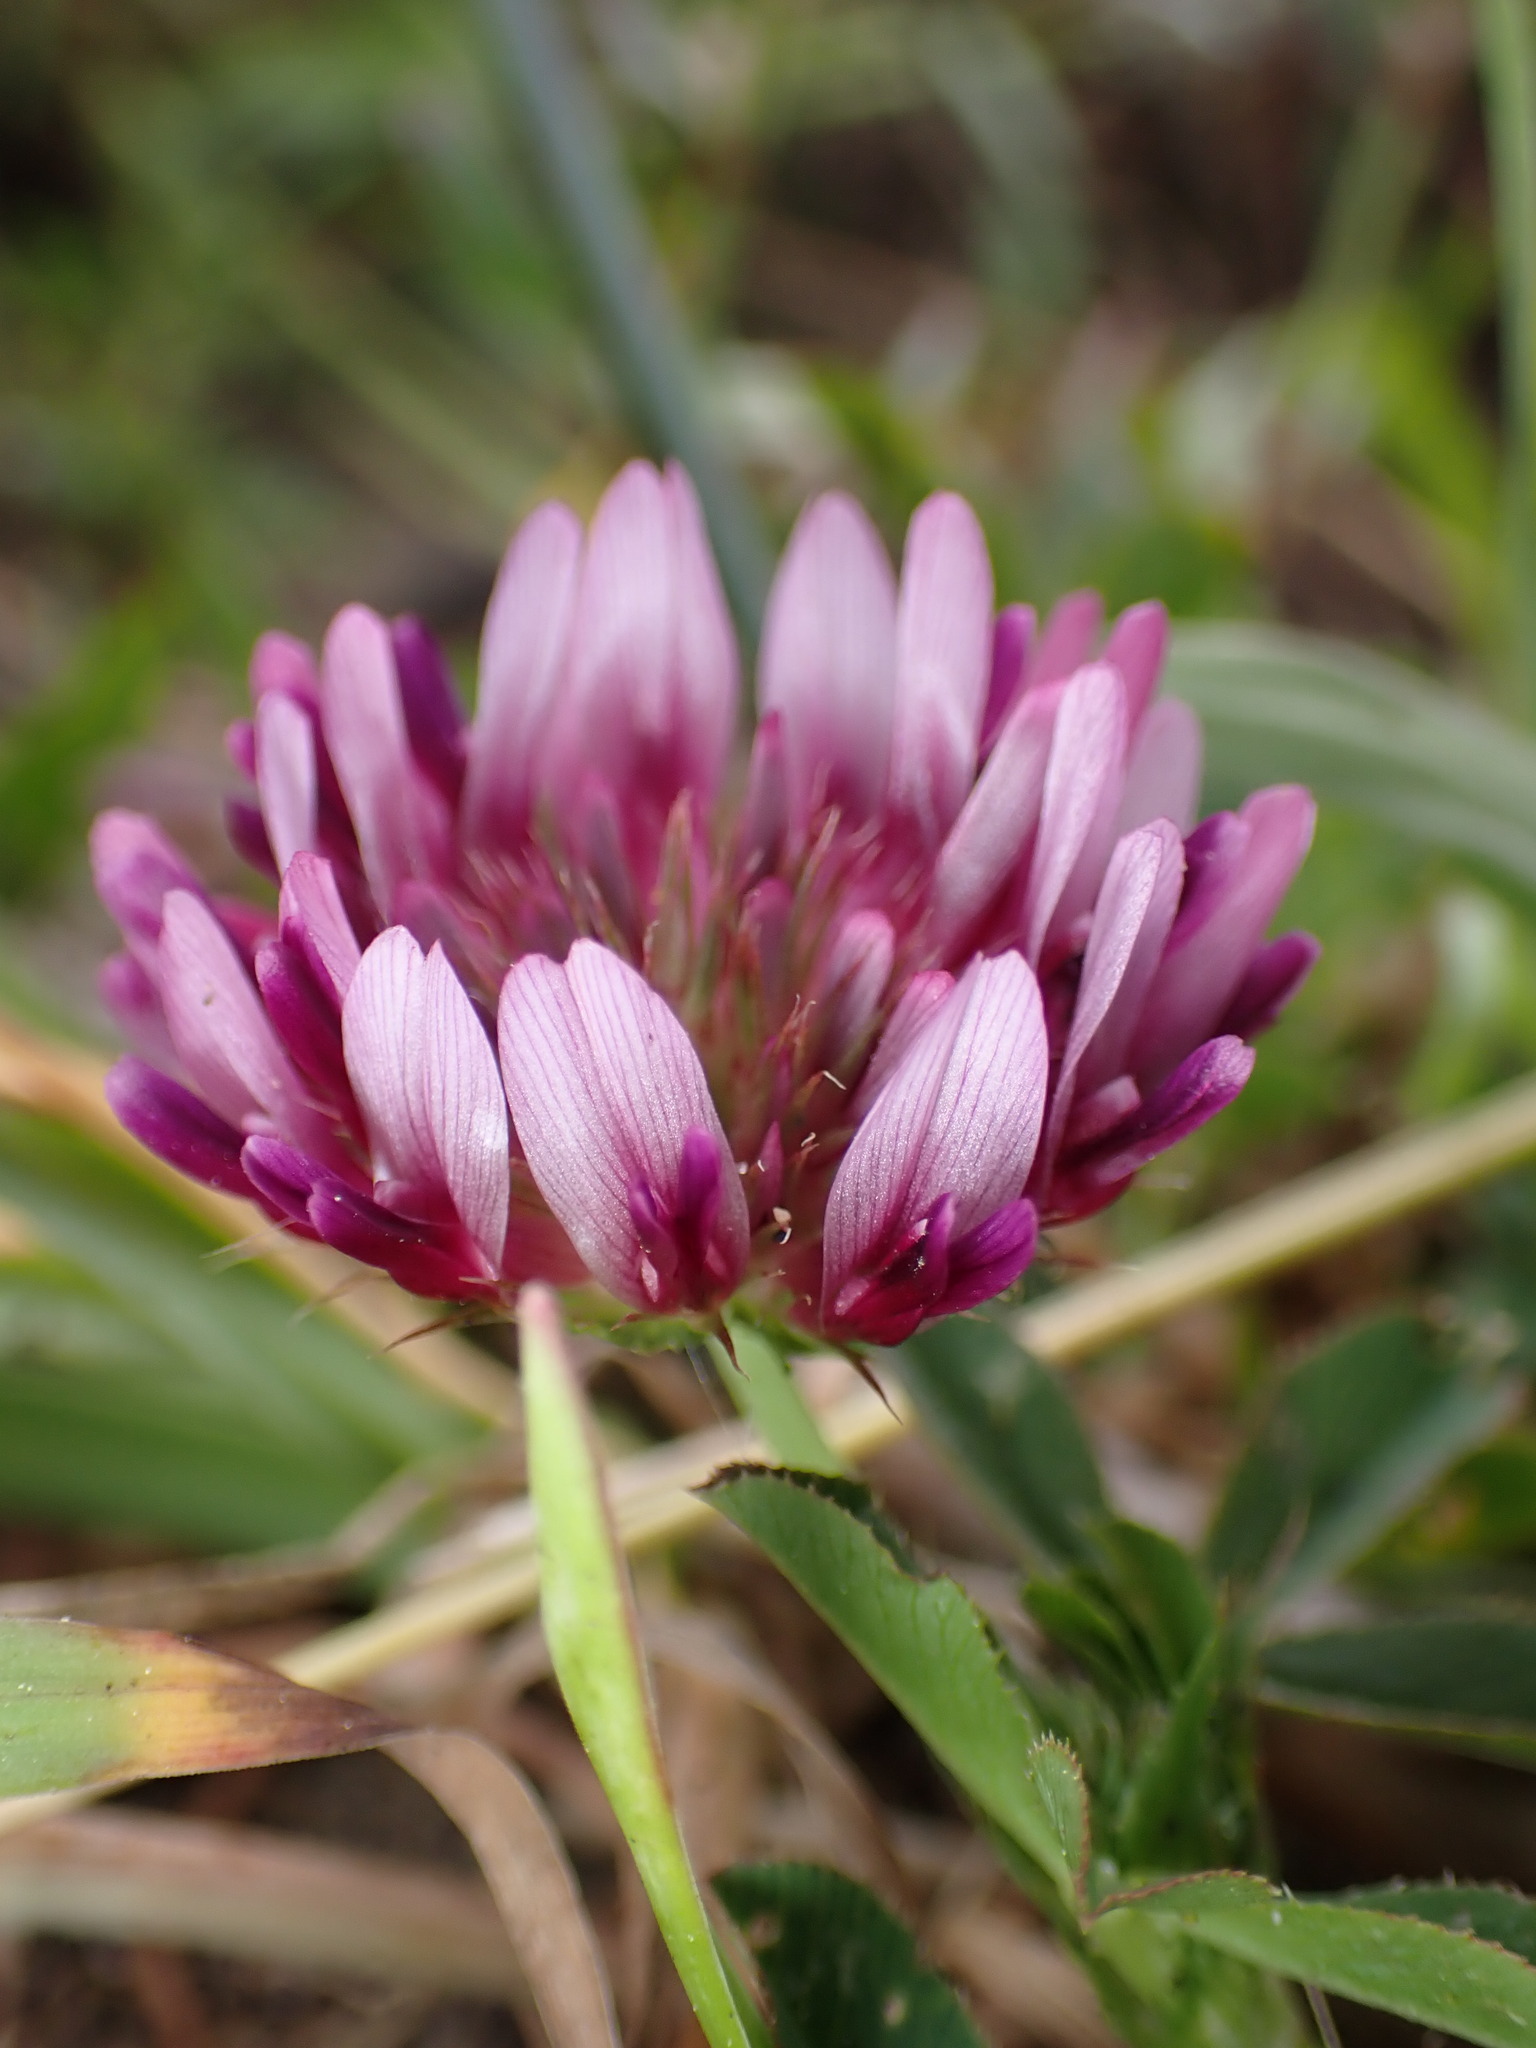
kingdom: Plantae
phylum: Tracheophyta
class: Magnoliopsida
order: Fabales
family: Fabaceae
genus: Trifolium
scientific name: Trifolium wormskioldii
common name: Springbank clover
